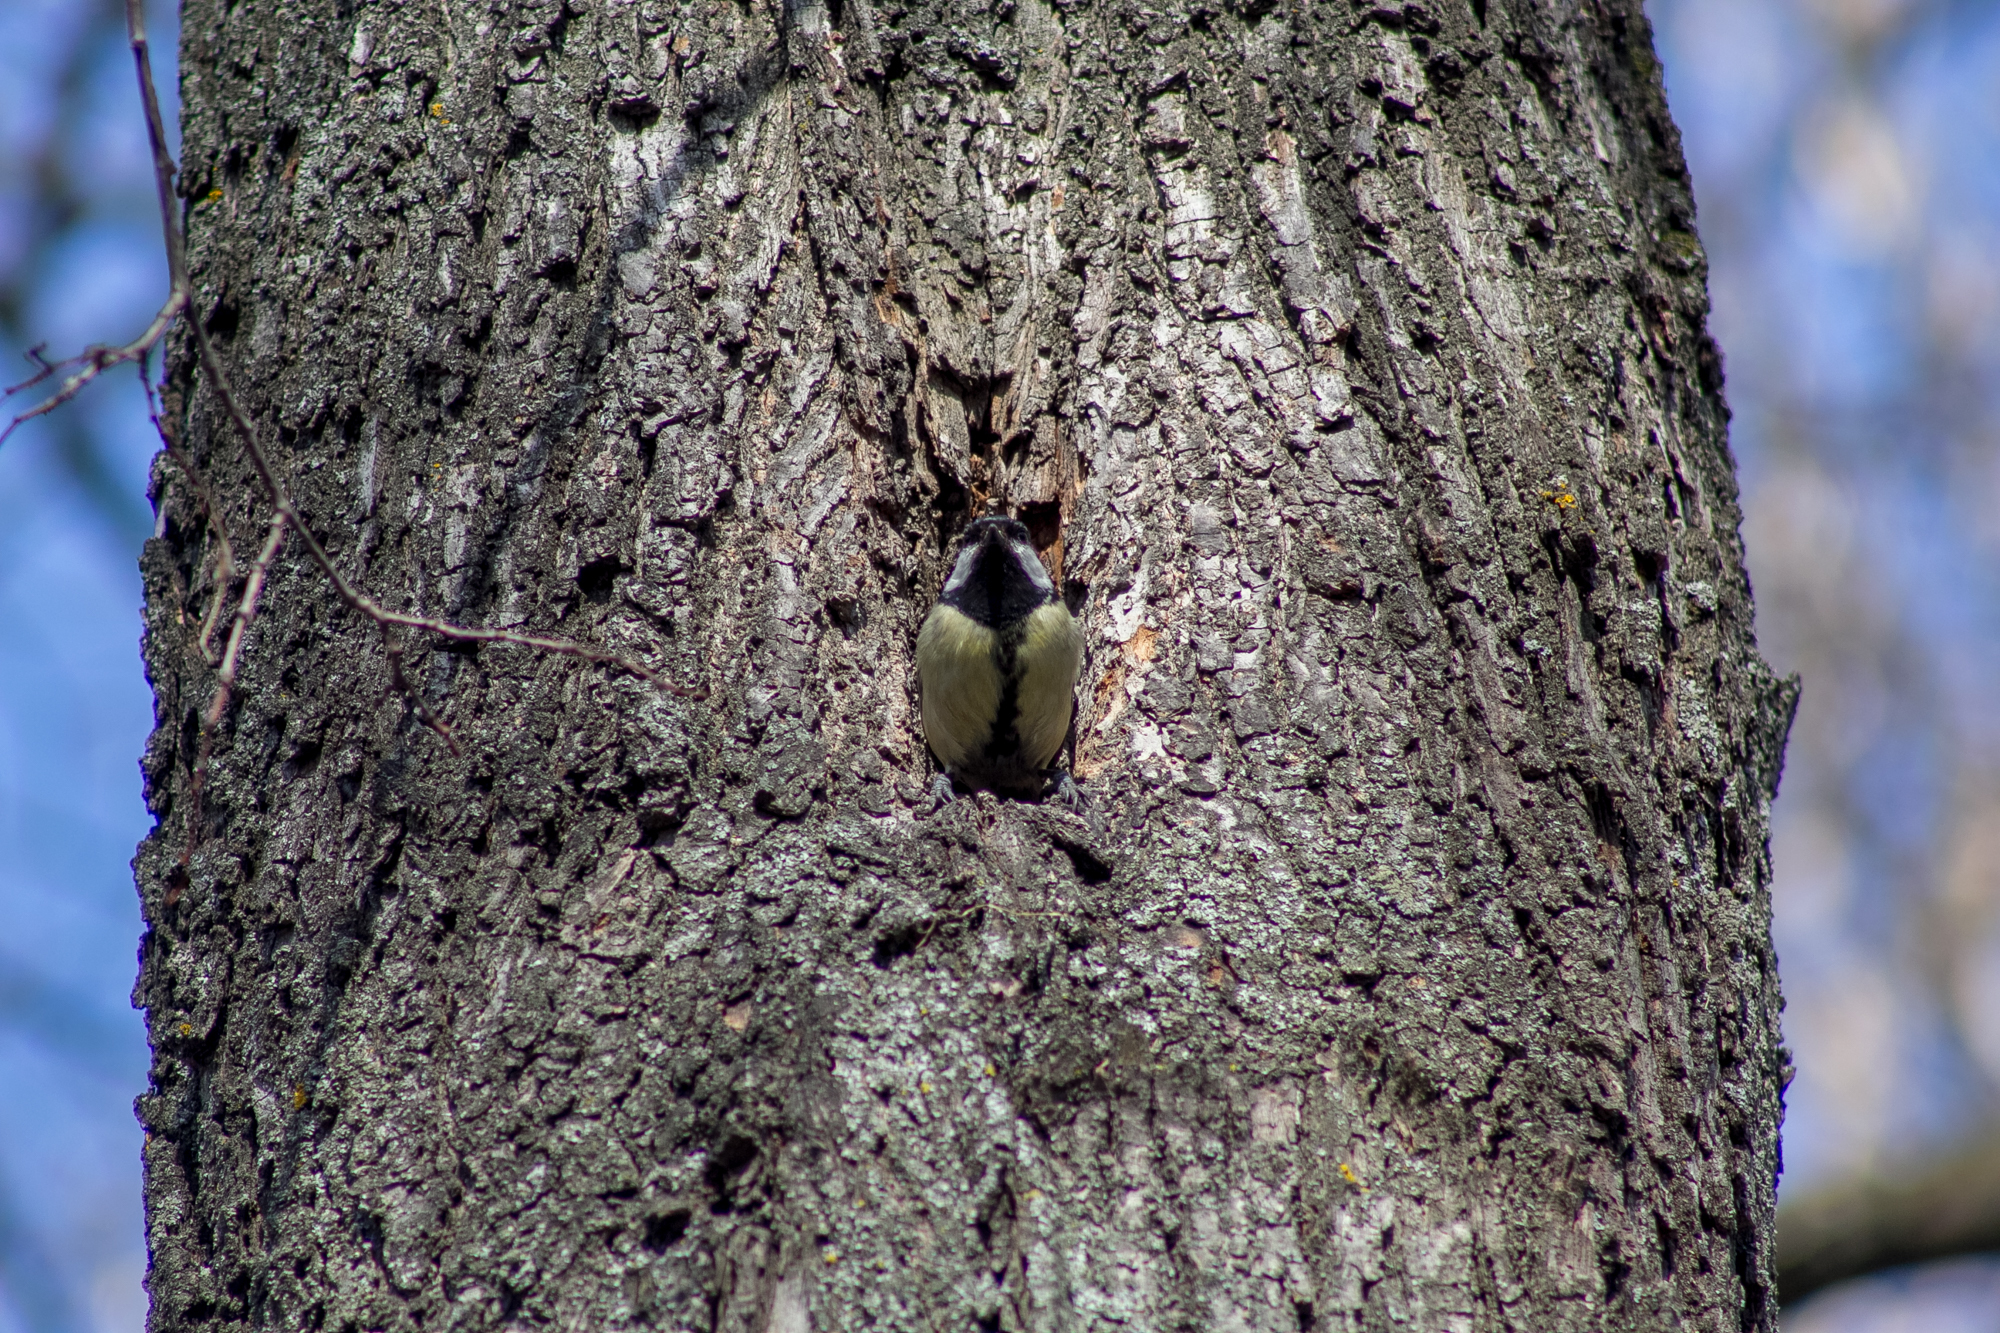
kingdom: Animalia
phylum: Chordata
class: Aves
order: Passeriformes
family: Paridae
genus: Parus
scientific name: Parus major
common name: Great tit
